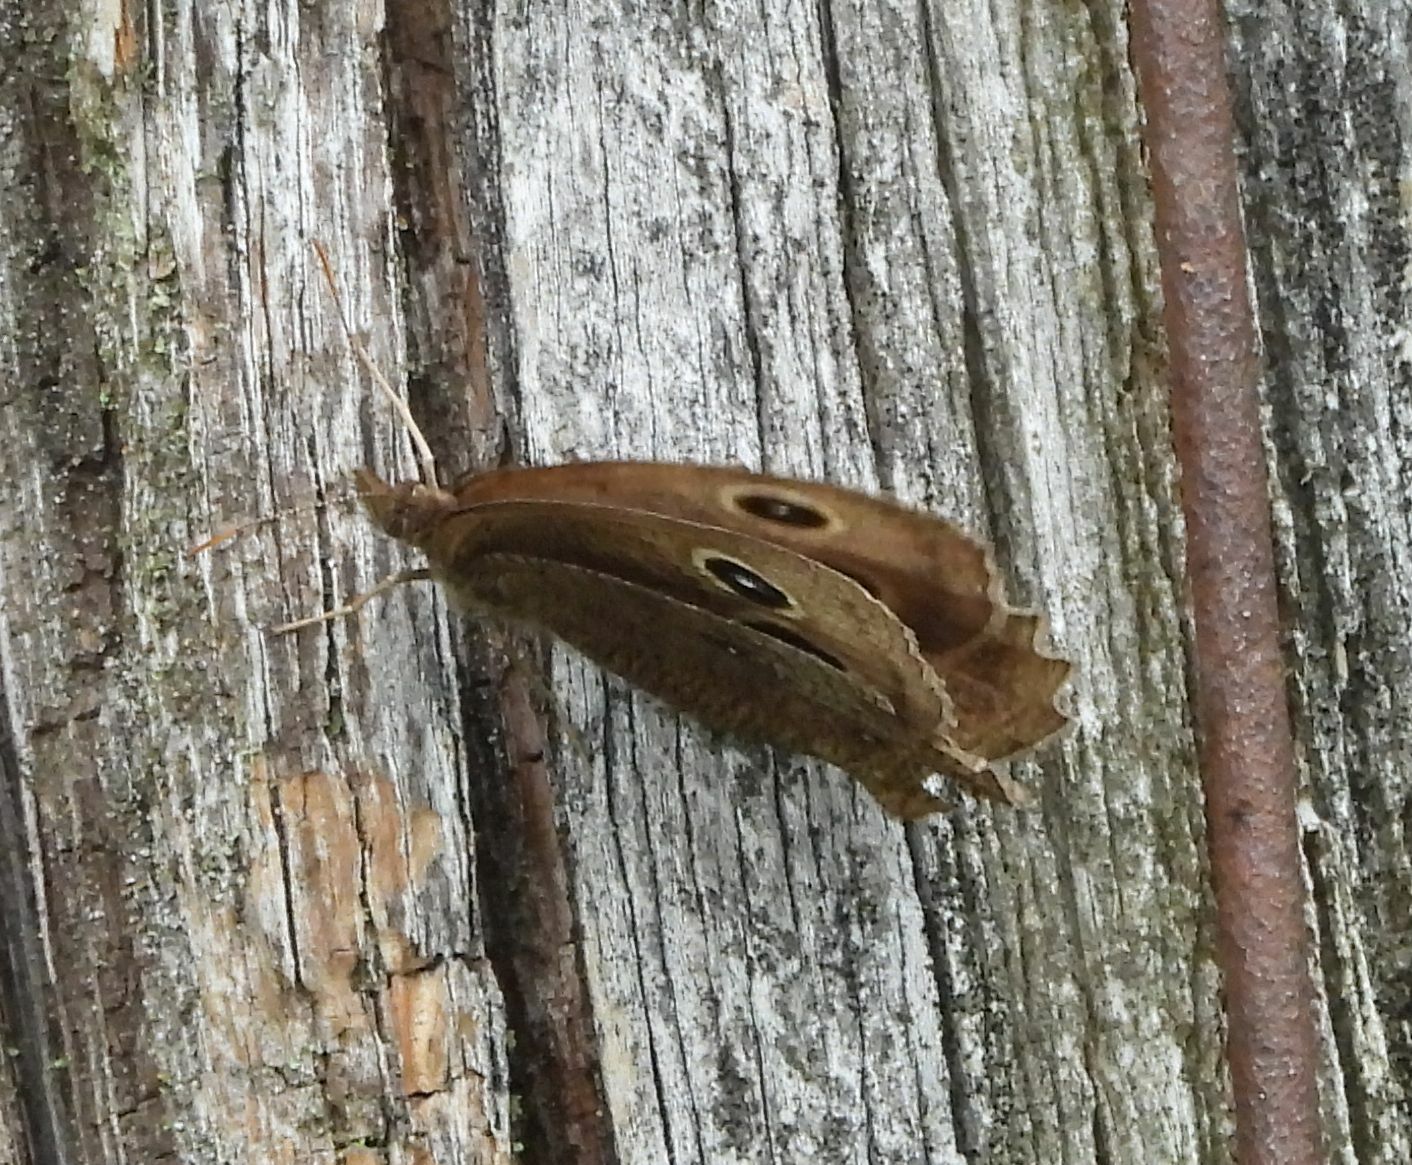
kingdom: Animalia
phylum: Arthropoda
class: Insecta
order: Lepidoptera
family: Nymphalidae
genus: Cercyonis
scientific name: Cercyonis pegala
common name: Common wood-nymph
